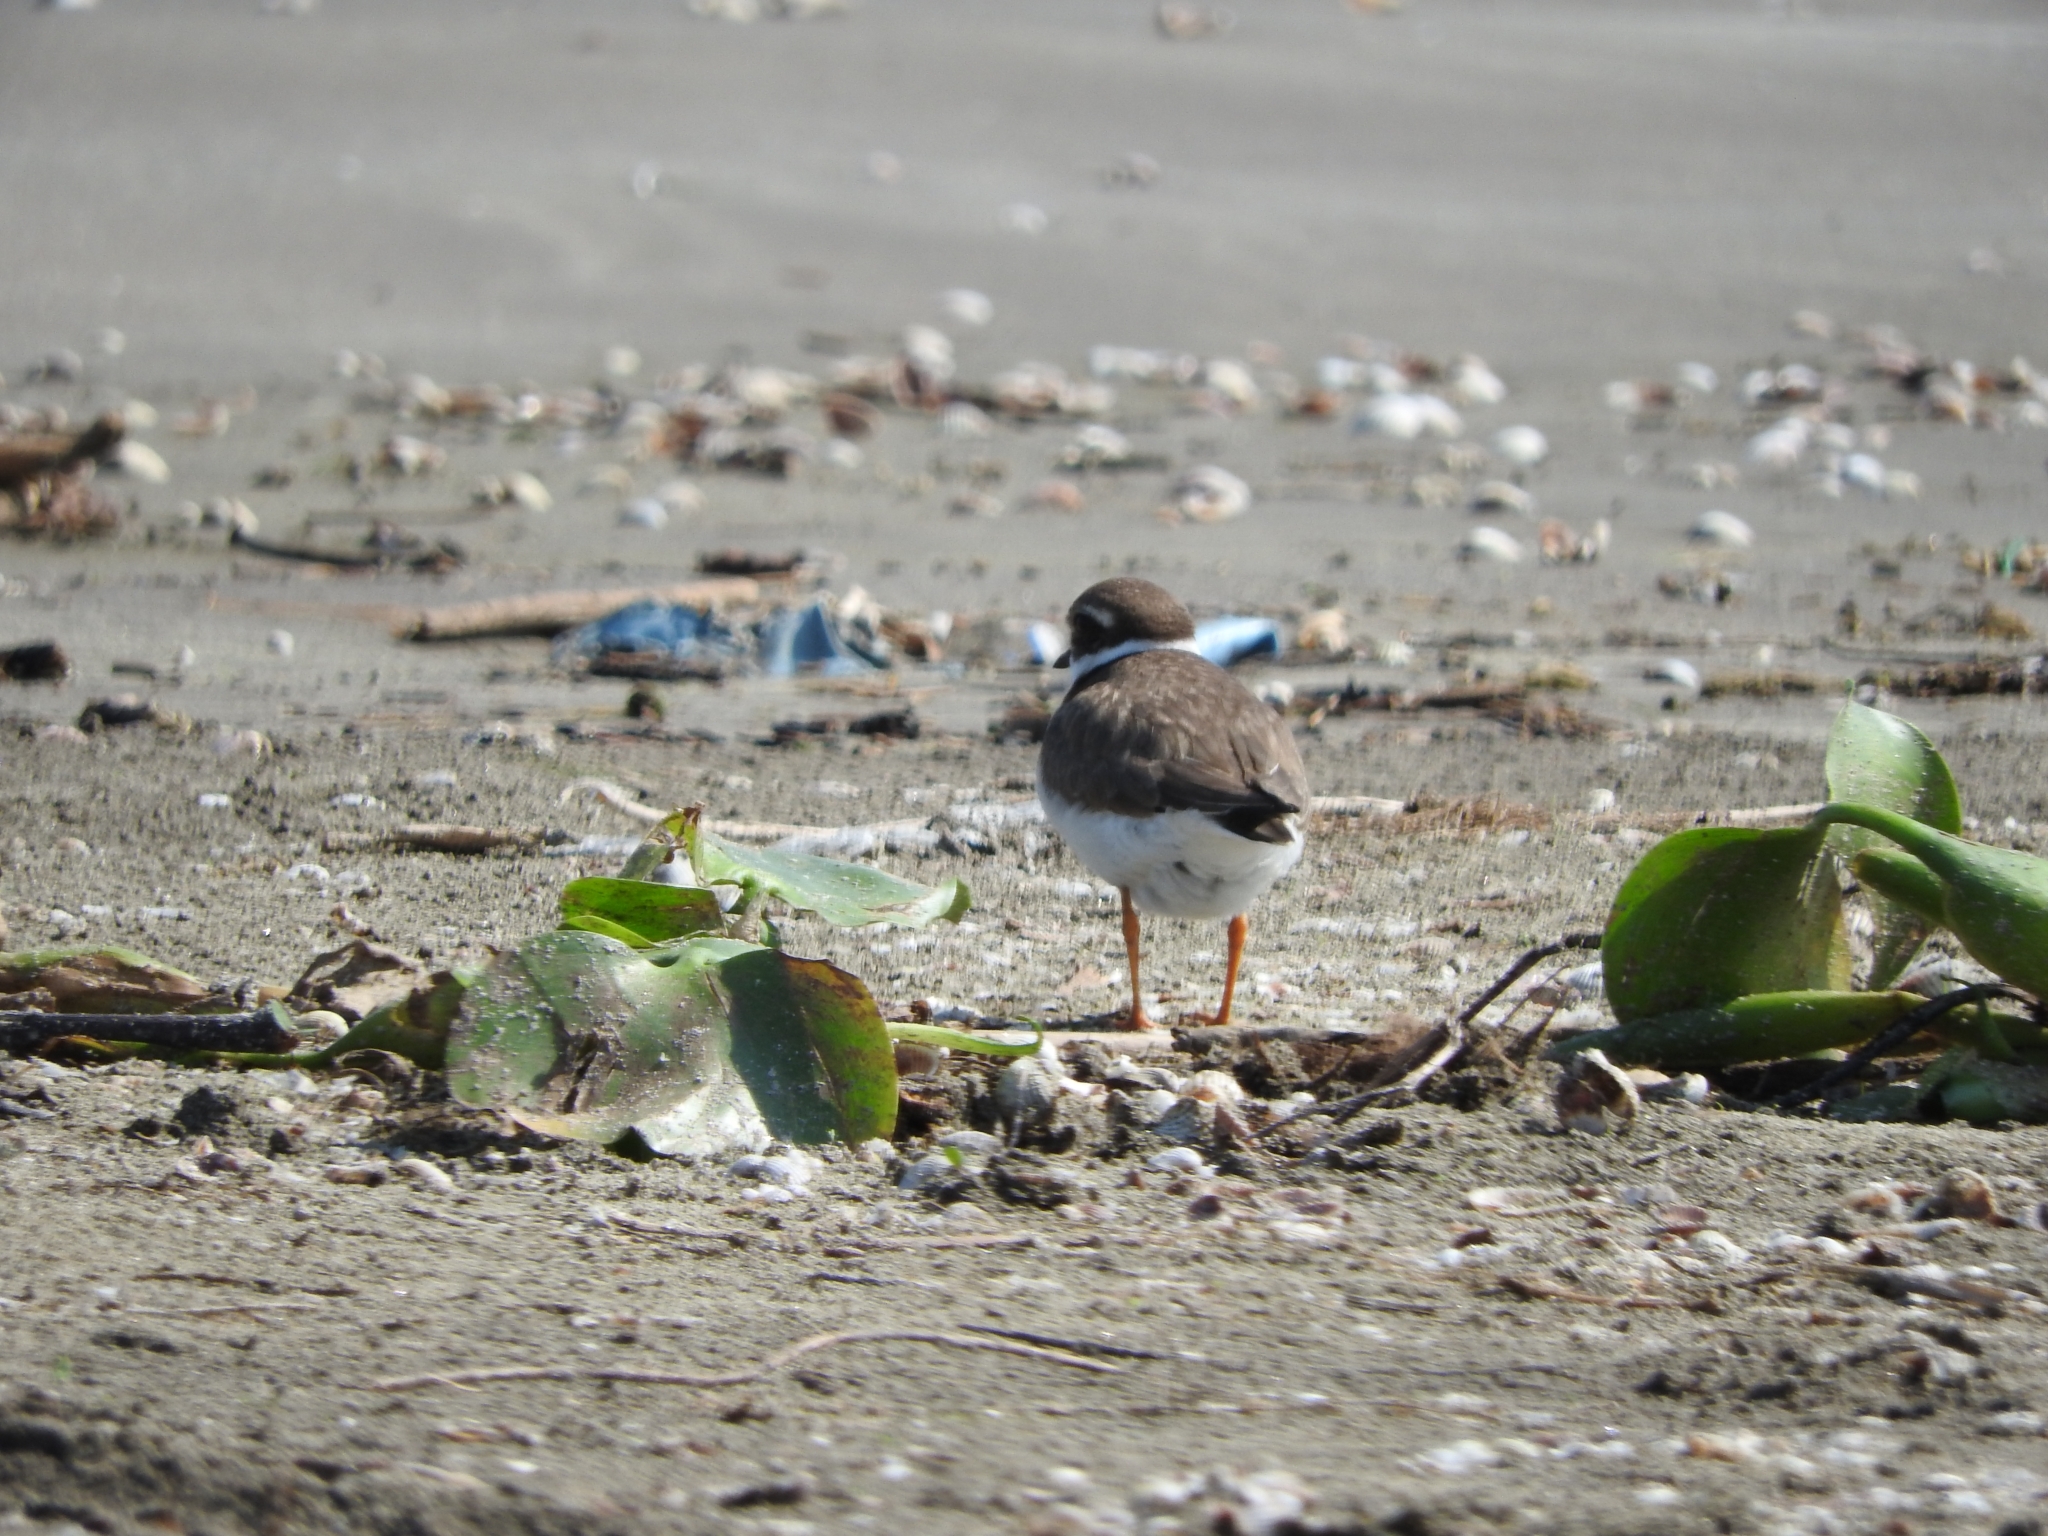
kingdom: Animalia
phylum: Chordata
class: Aves
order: Charadriiformes
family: Charadriidae
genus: Charadrius
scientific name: Charadrius hiaticula
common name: Common ringed plover
